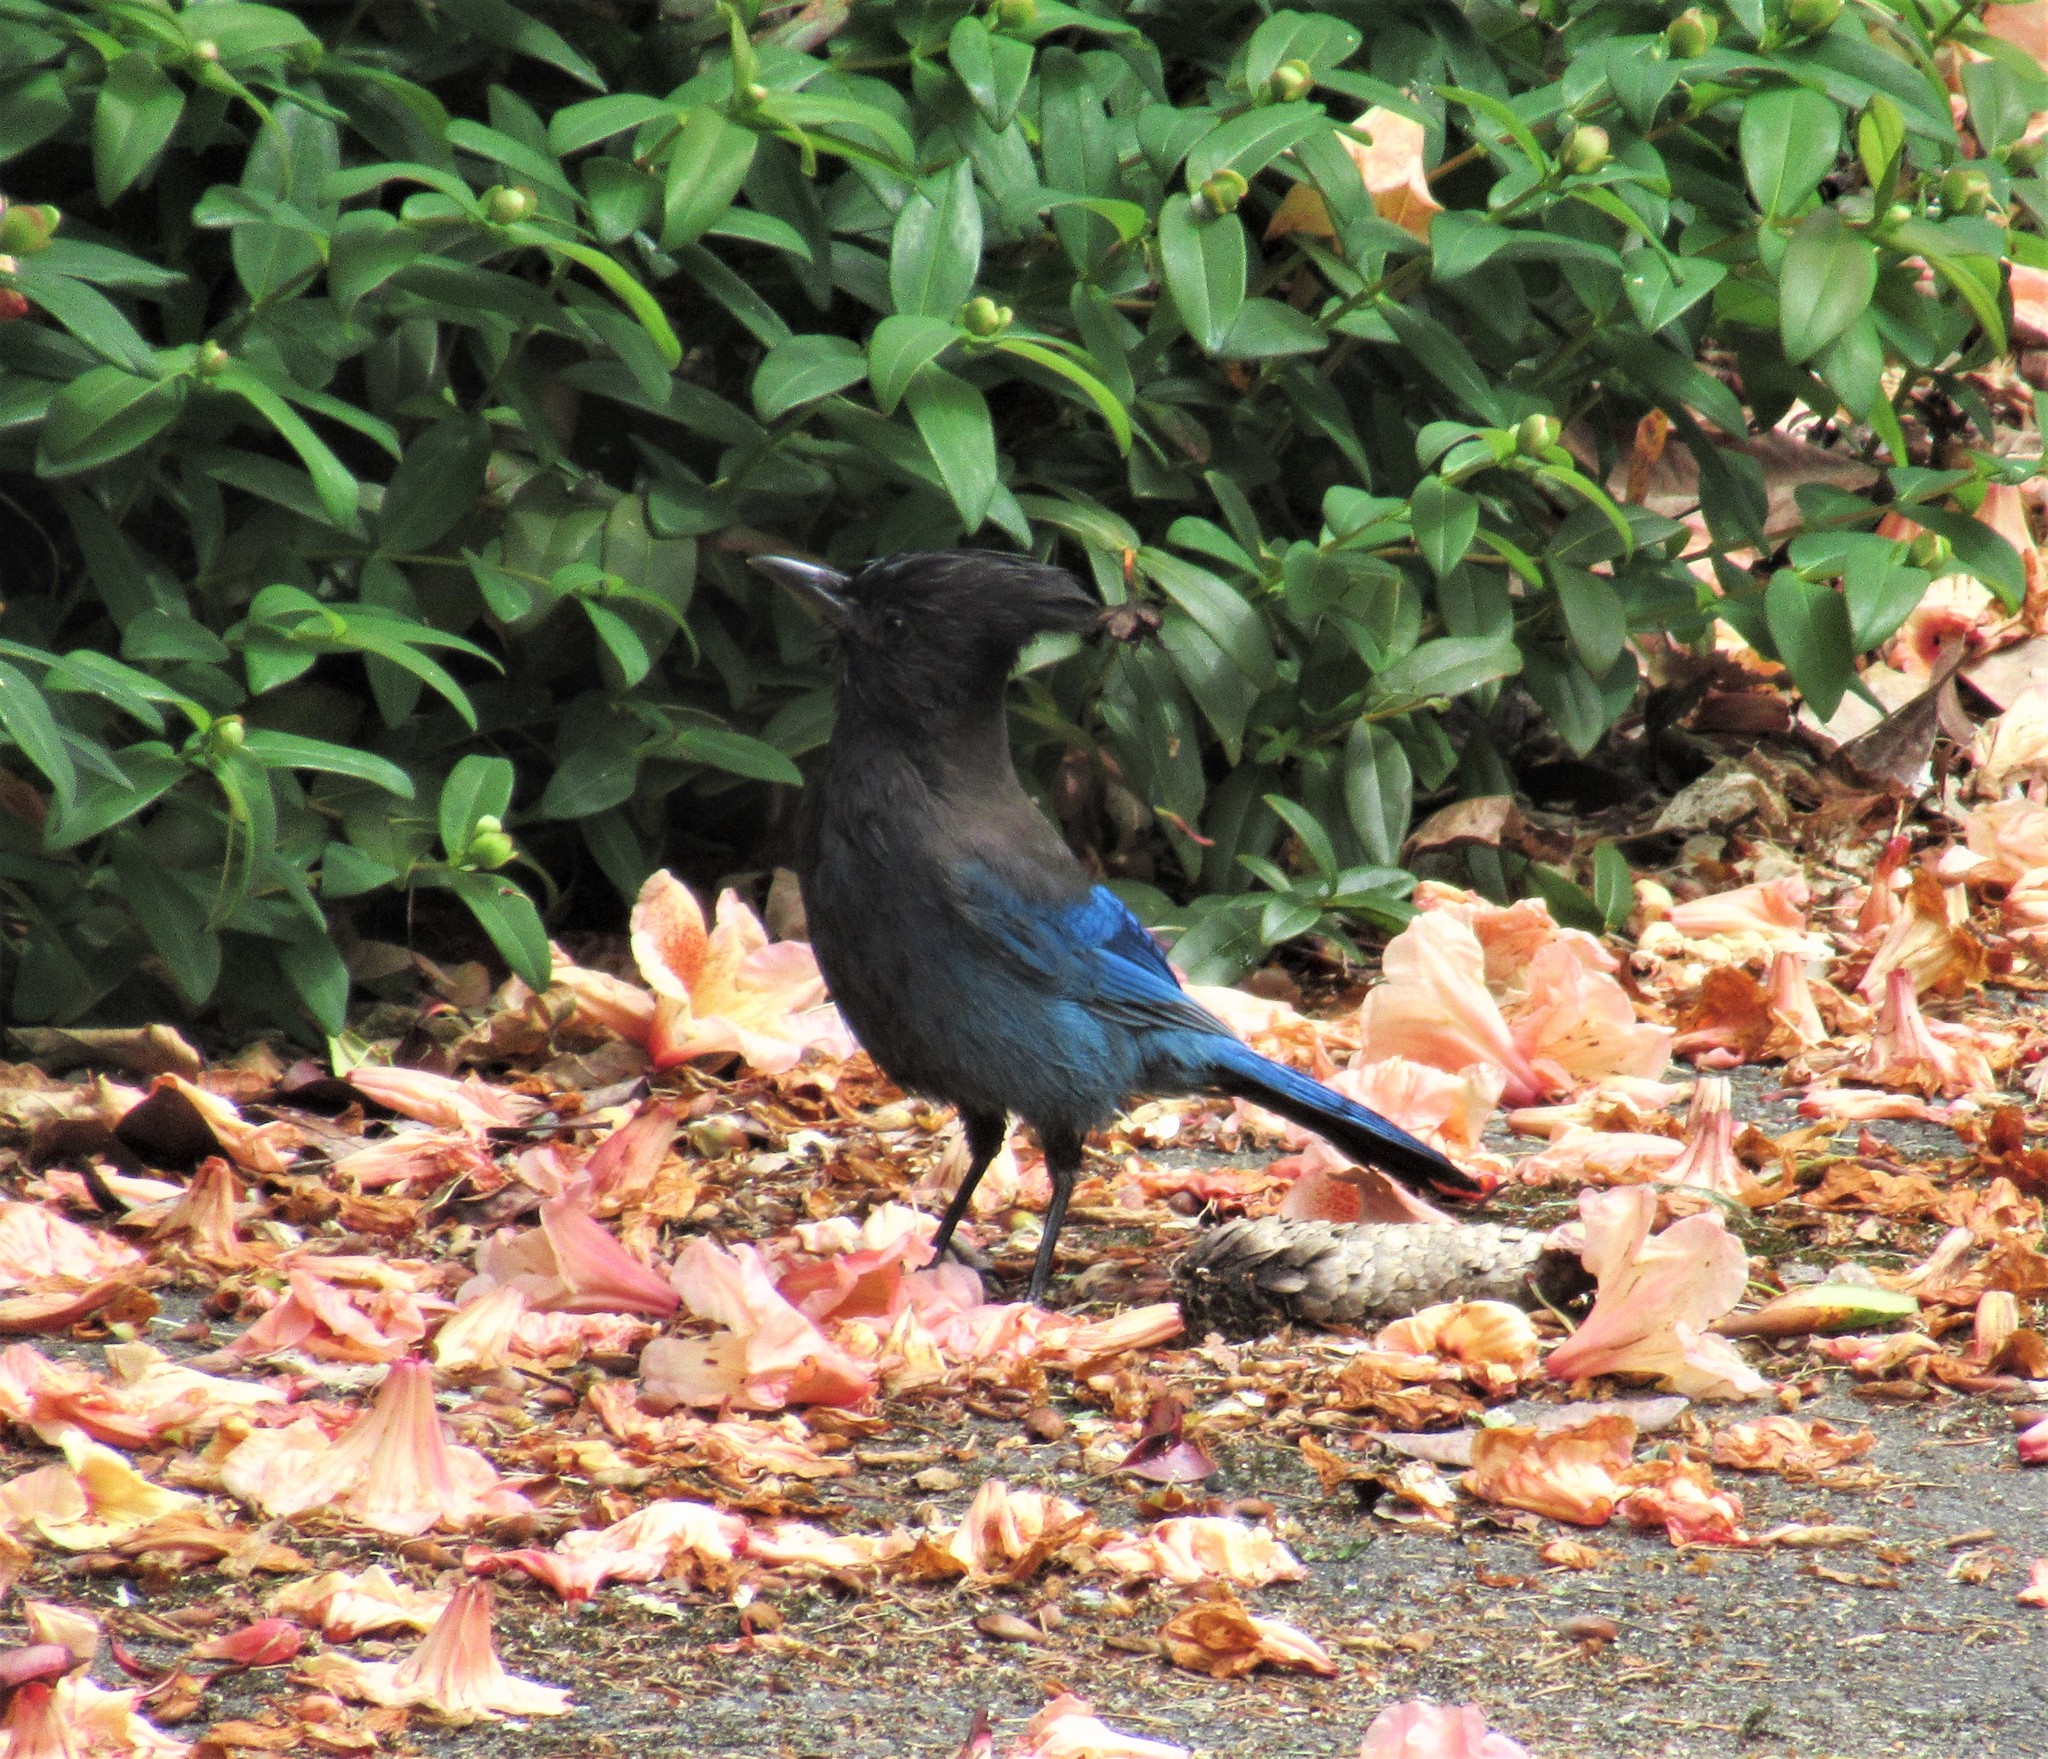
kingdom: Animalia
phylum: Chordata
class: Aves
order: Passeriformes
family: Corvidae
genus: Cyanocitta
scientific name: Cyanocitta stelleri
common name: Steller's jay
